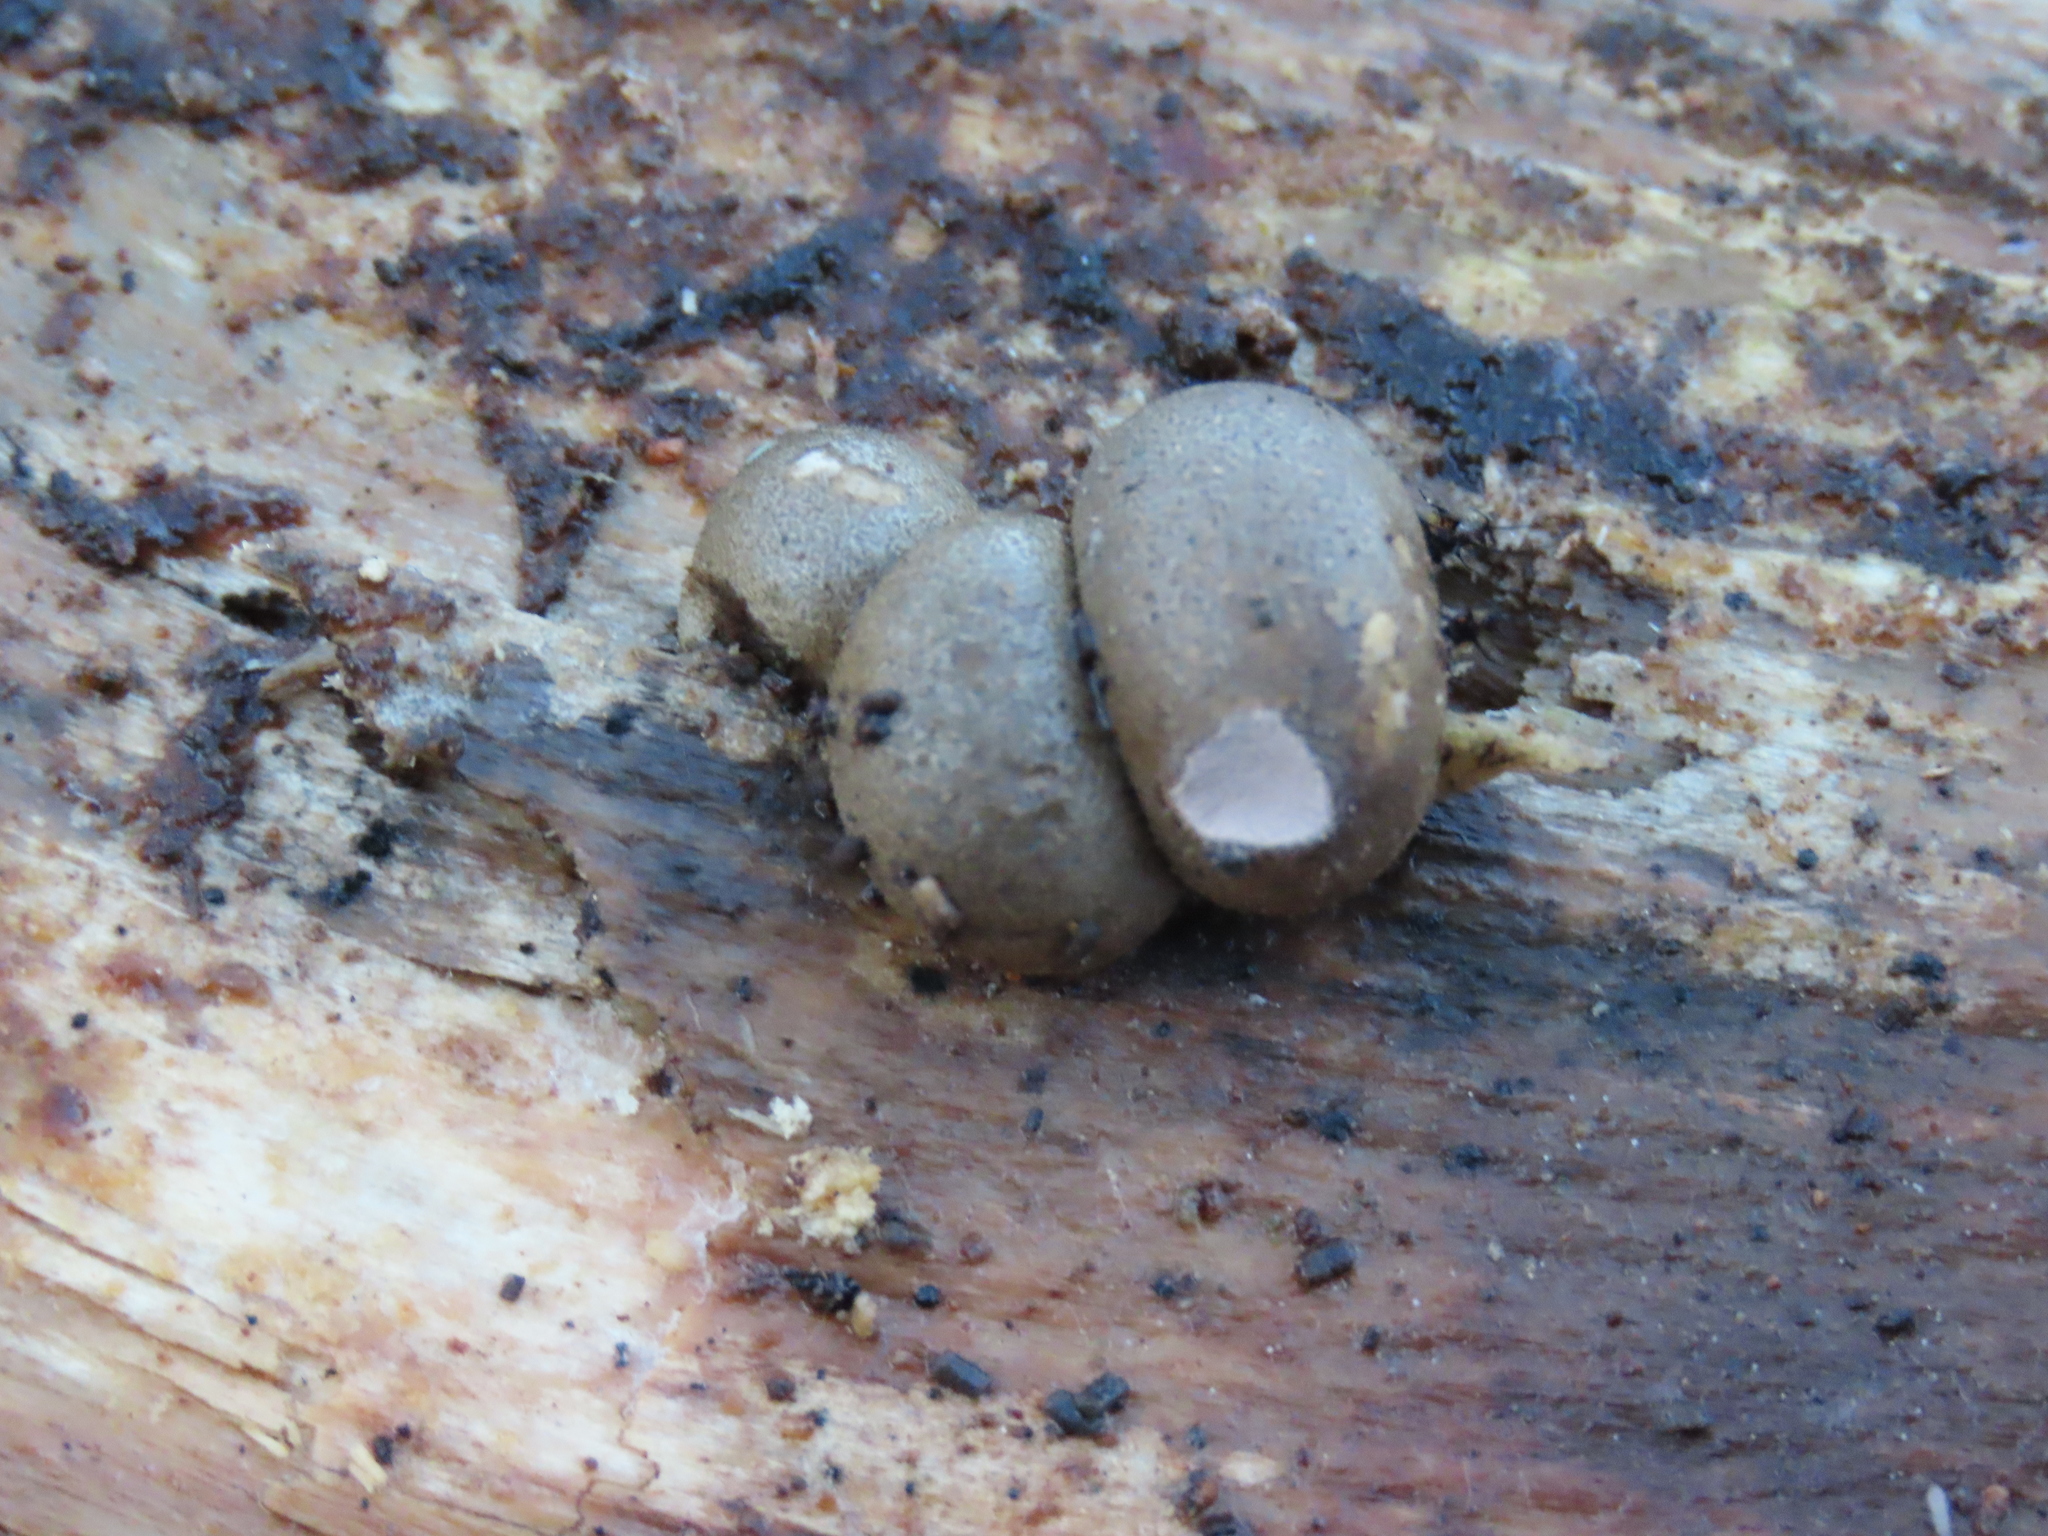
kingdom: Protozoa
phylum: Mycetozoa
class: Myxomycetes
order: Cribrariales
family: Tubiferaceae
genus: Lycogala
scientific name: Lycogala epidendrum
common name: Wolf's milk
